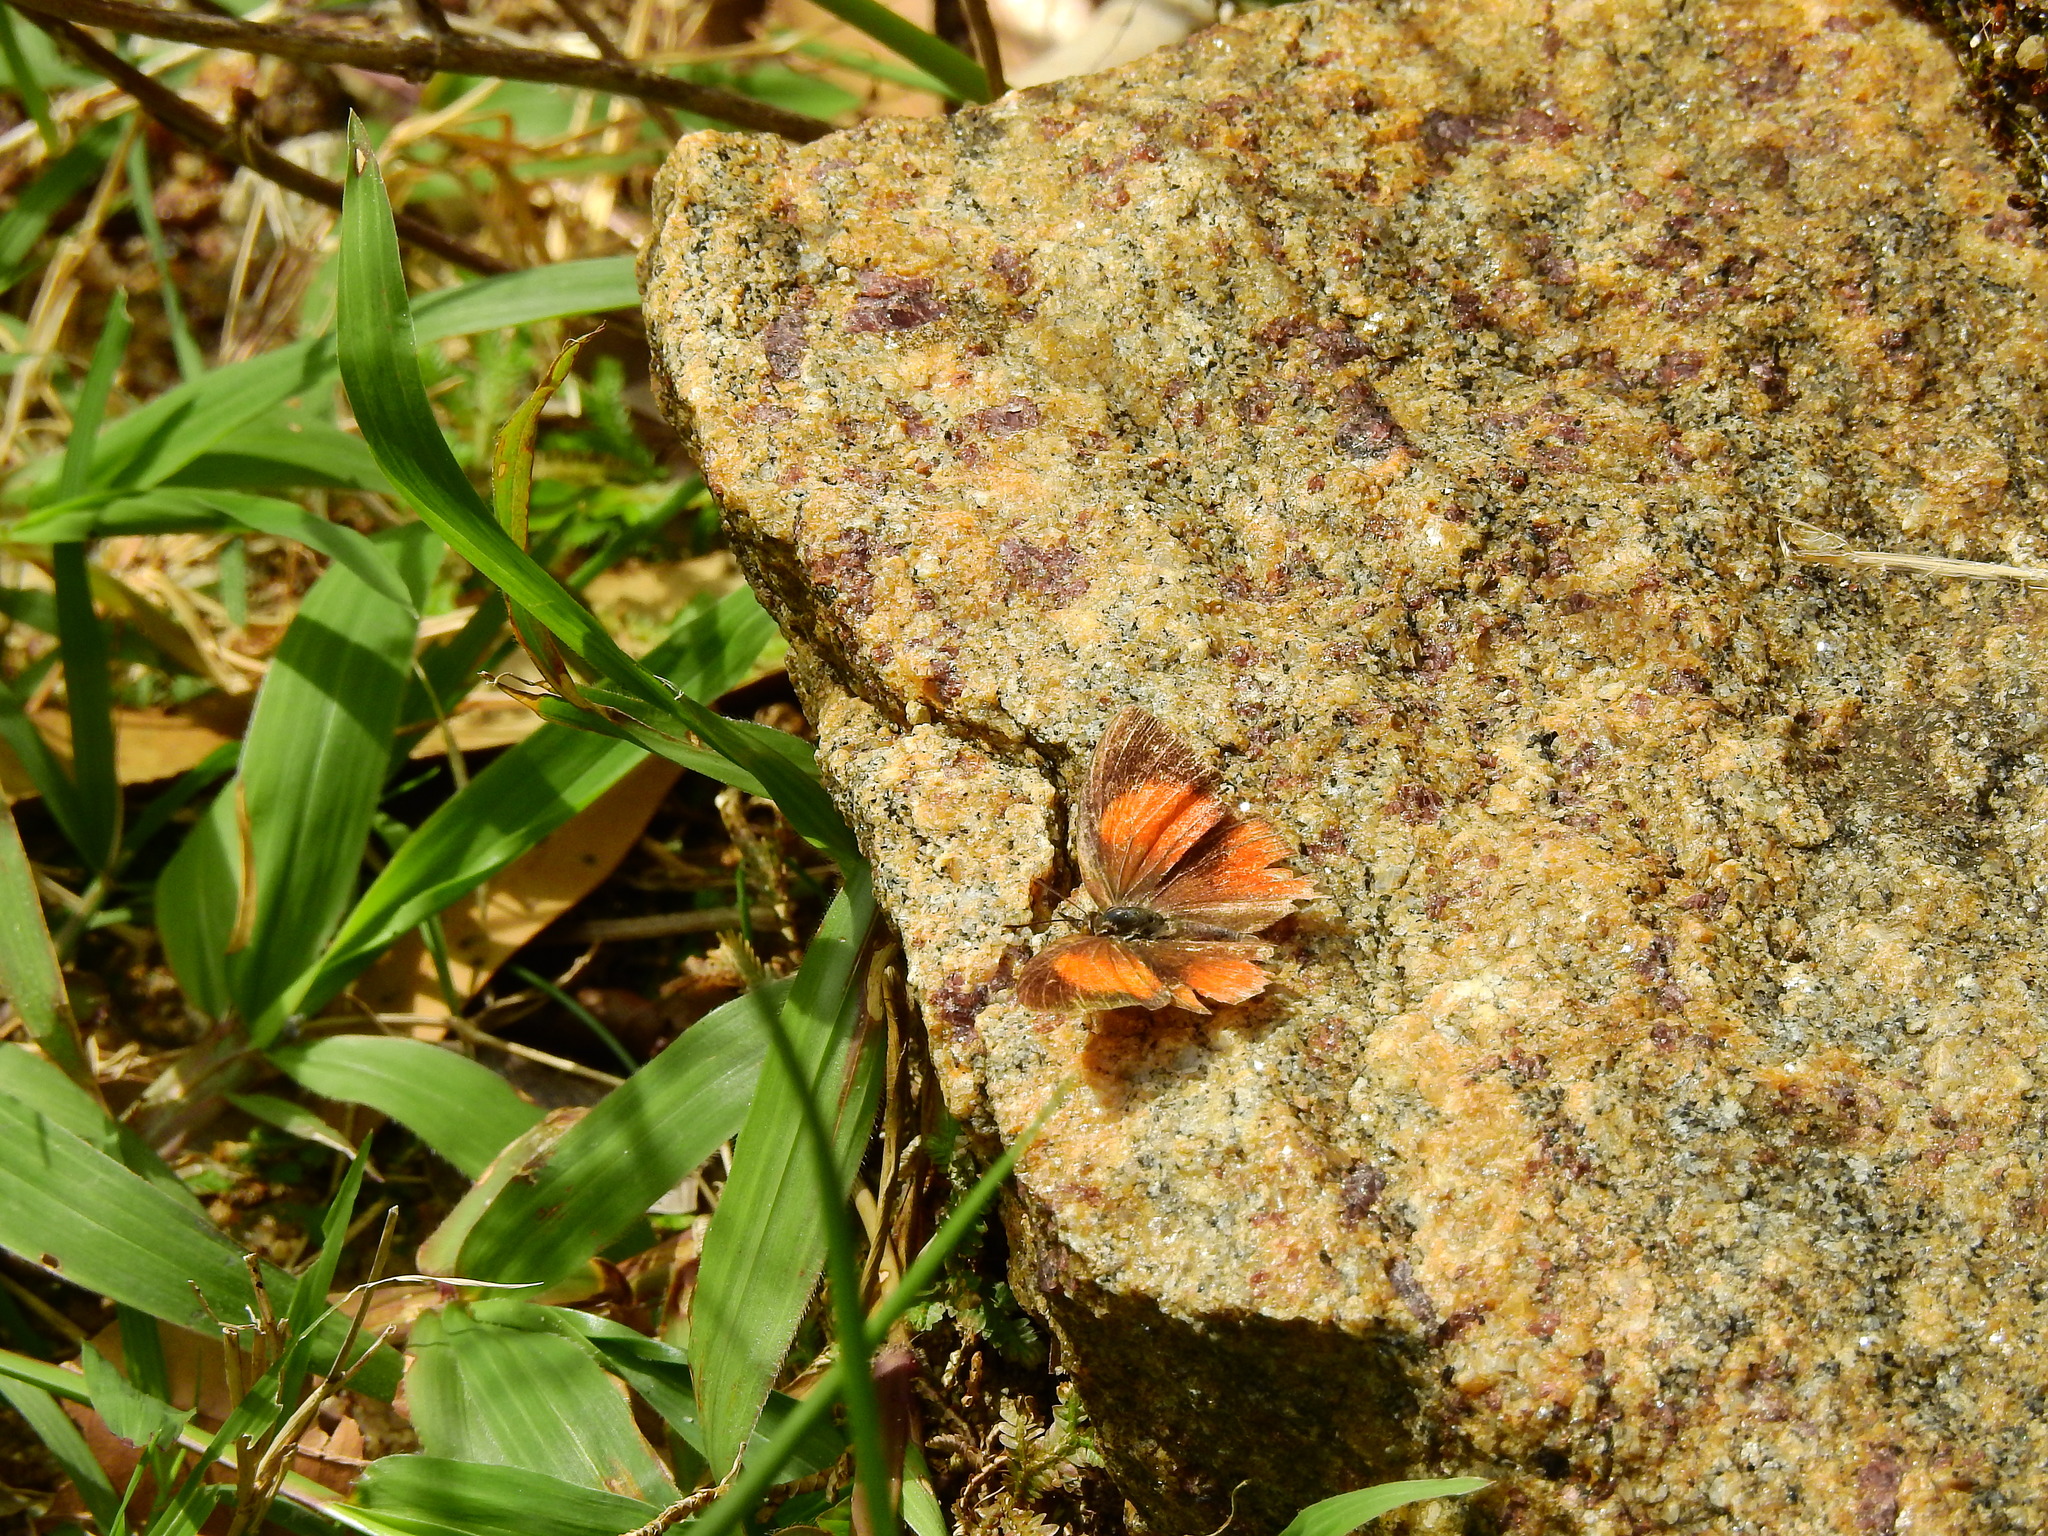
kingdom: Animalia
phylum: Arthropoda
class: Insecta
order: Lepidoptera
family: Lycaenidae
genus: Loxura
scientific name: Loxura atymnus
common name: Common yamfly
